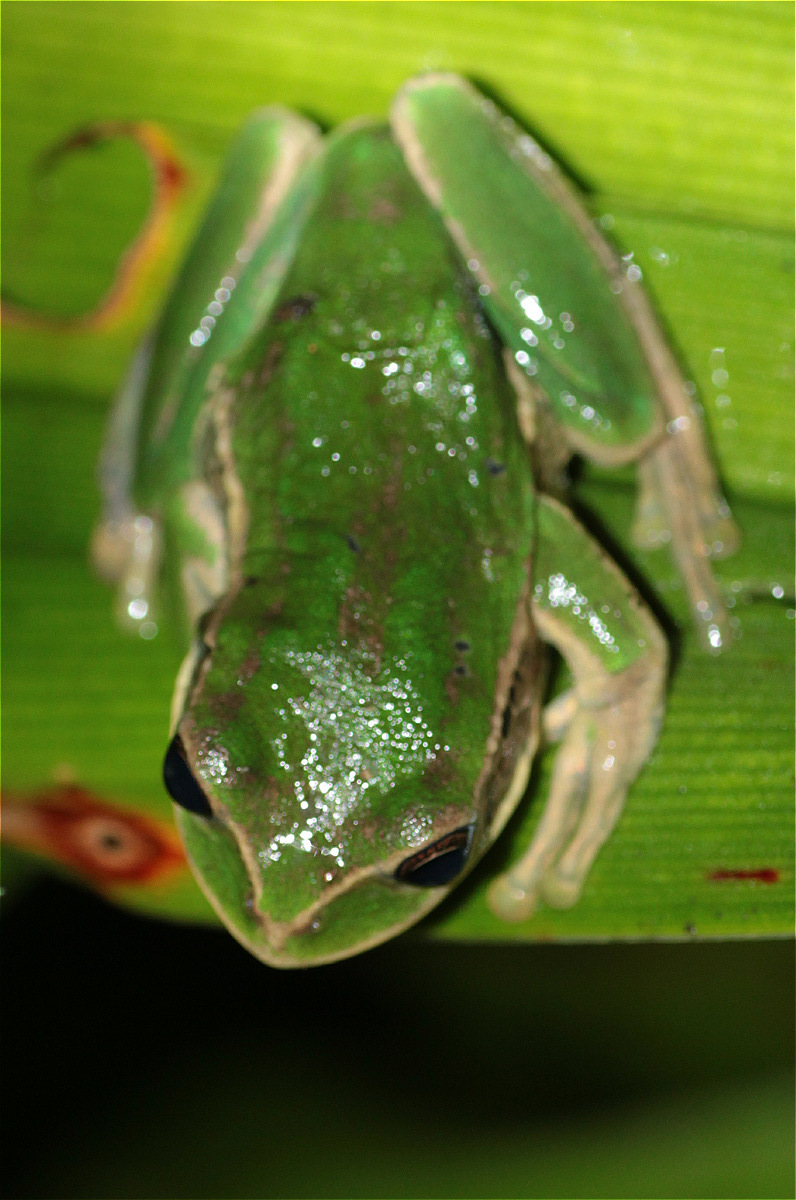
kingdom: Animalia
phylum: Chordata
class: Amphibia
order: Anura
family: Hemiphractidae
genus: Gastrotheca
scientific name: Gastrotheca cuencana
